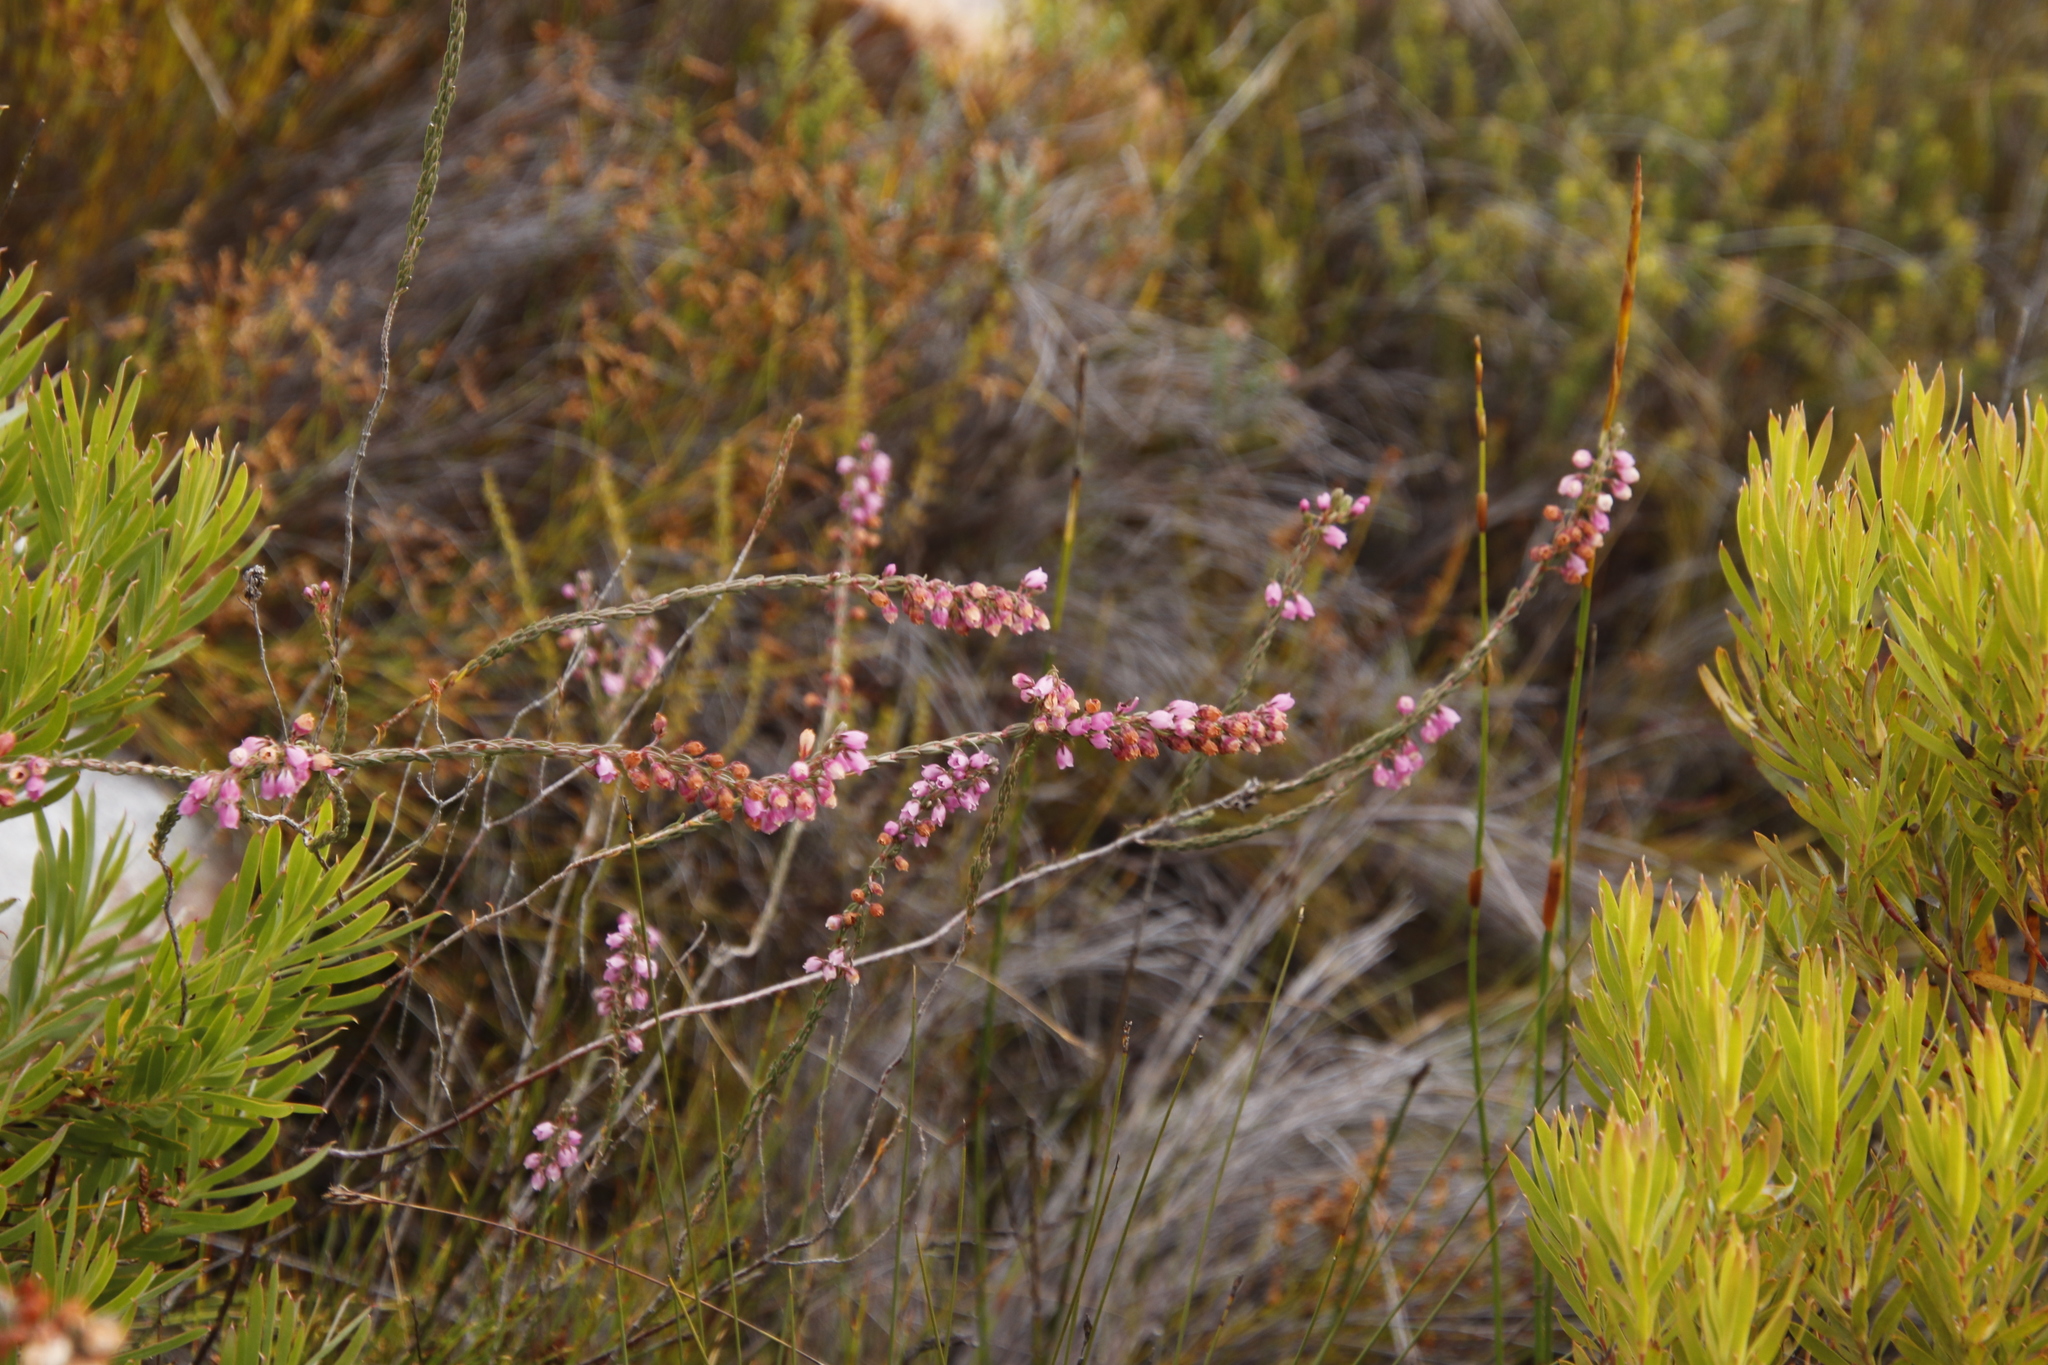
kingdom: Plantae
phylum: Tracheophyta
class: Magnoliopsida
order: Ericales
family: Ericaceae
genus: Erica
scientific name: Erica viscaria
